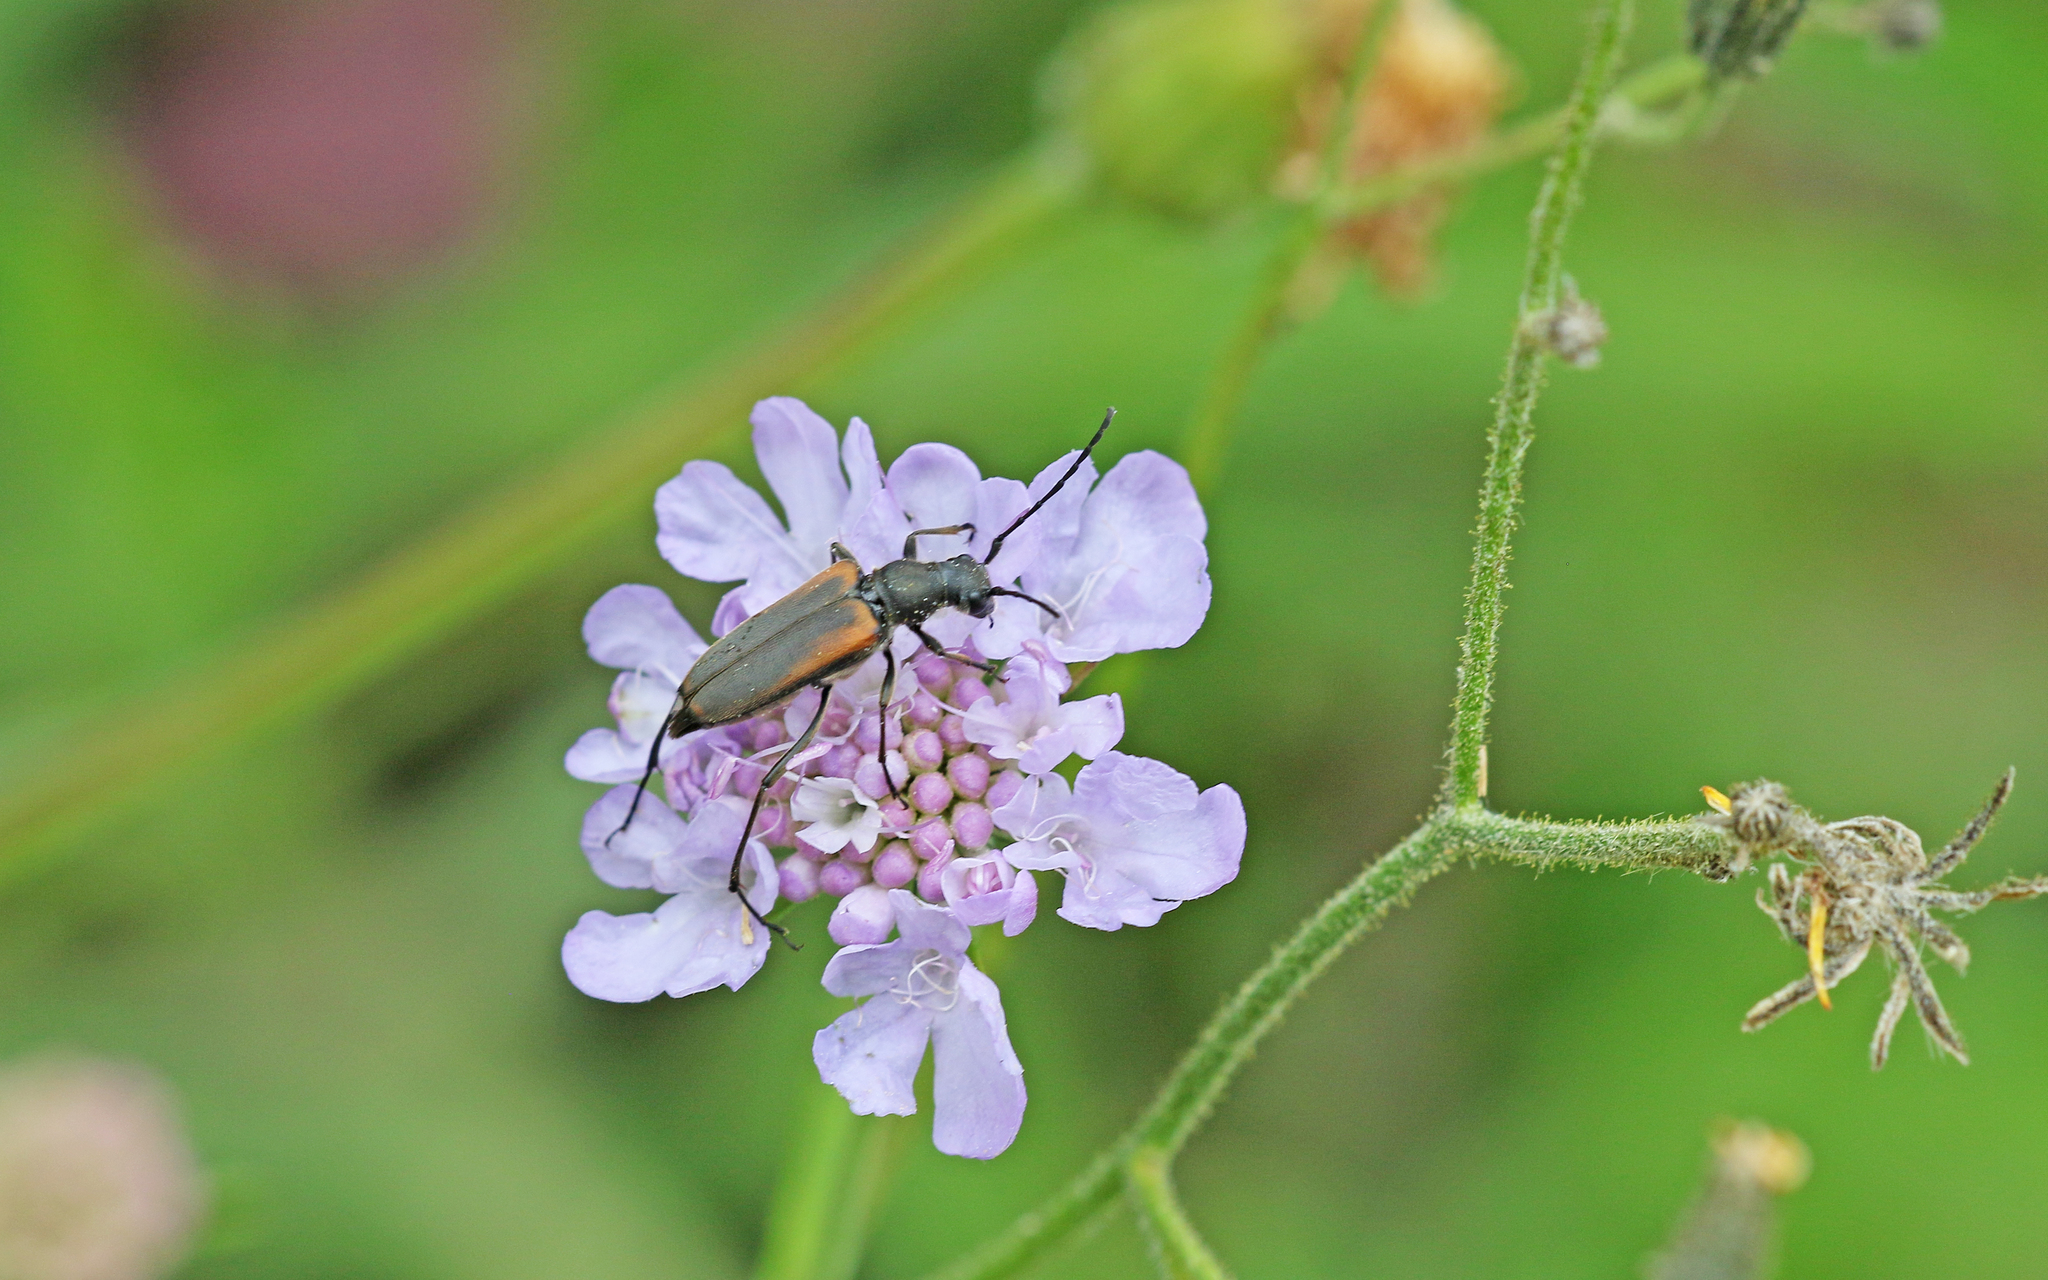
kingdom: Animalia
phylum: Arthropoda
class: Insecta
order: Coleoptera
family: Cerambycidae
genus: Anastrangalia
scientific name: Anastrangalia dubia
